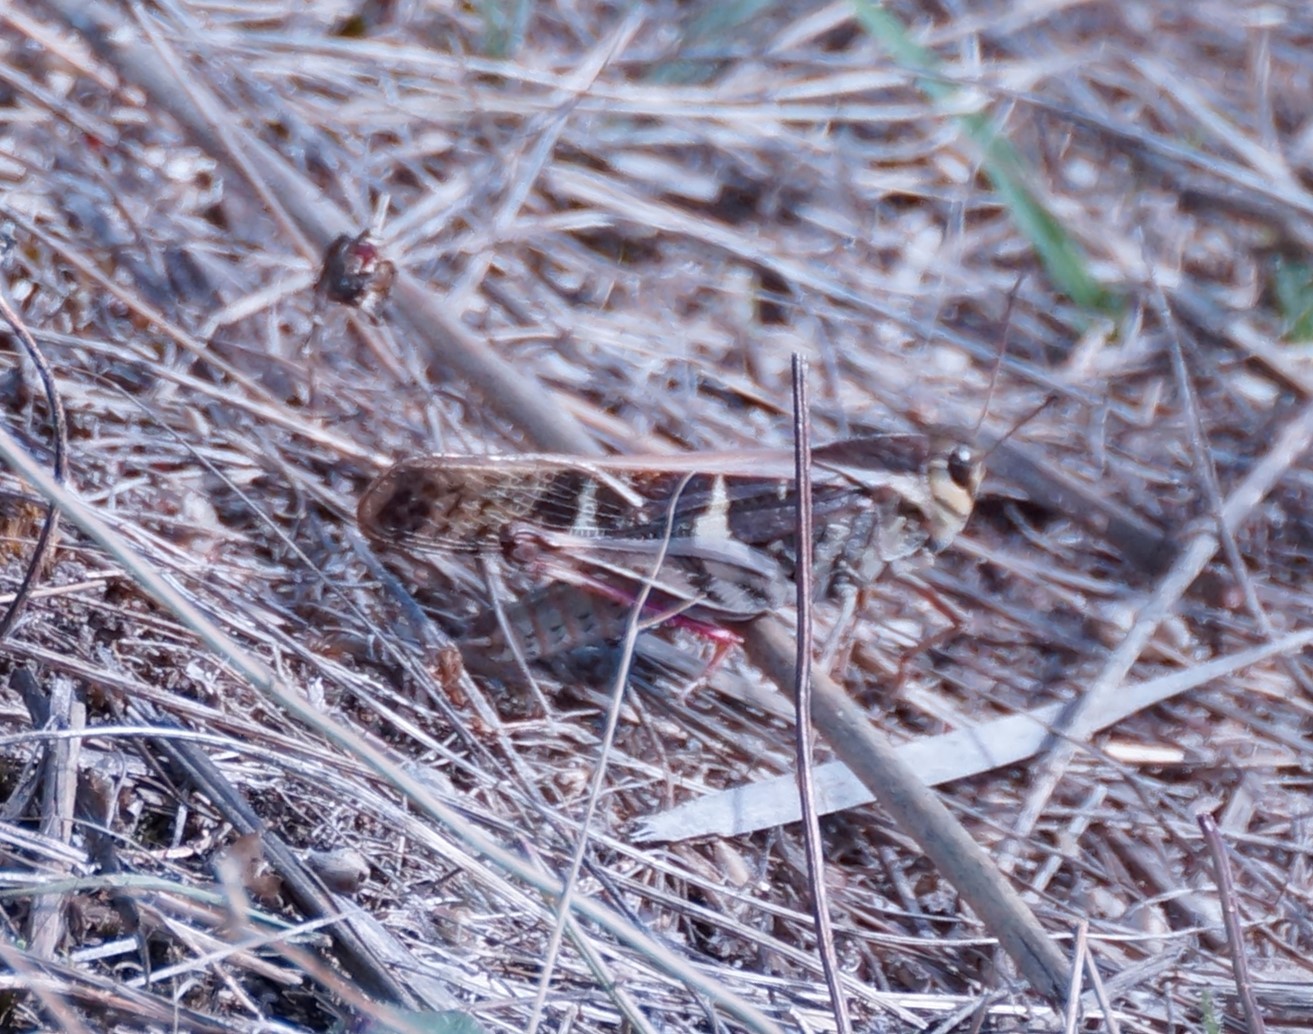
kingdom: Animalia
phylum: Arthropoda
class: Insecta
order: Orthoptera
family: Acrididae
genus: Gastrimargus
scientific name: Gastrimargus musicus
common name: Yellow-winged locust
